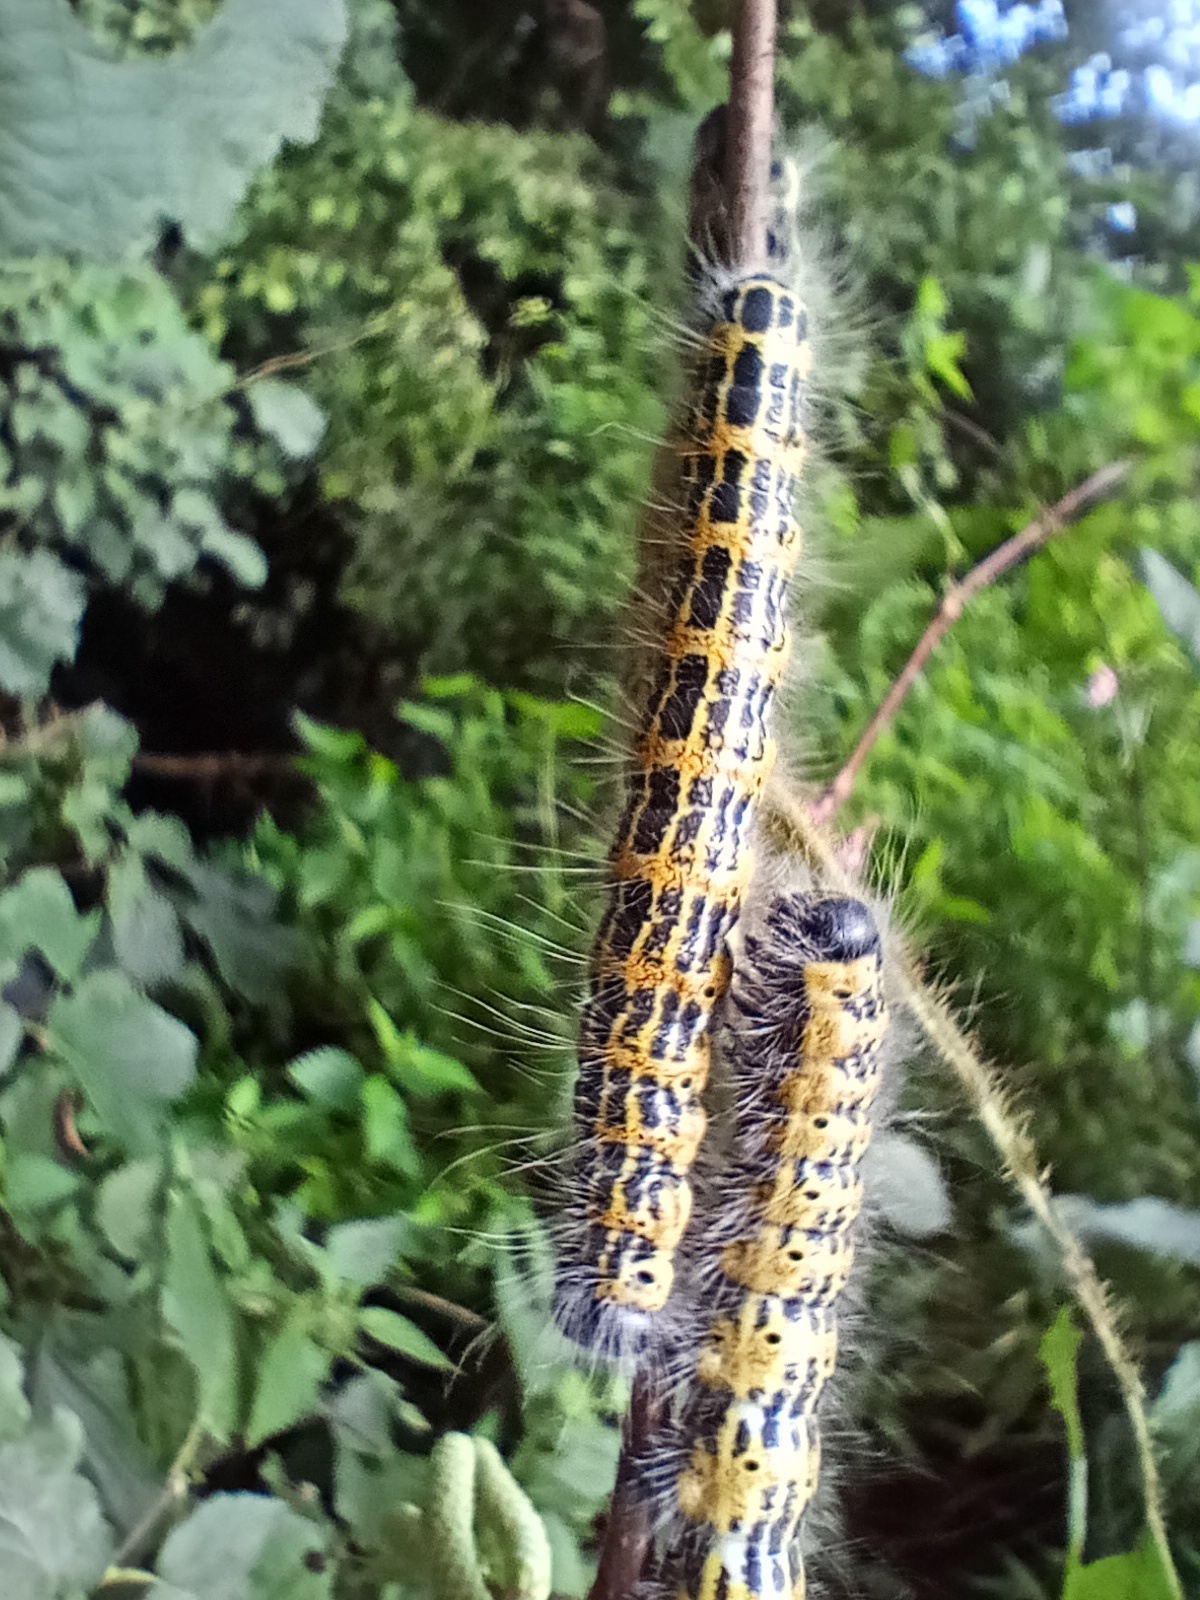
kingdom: Animalia
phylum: Arthropoda
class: Insecta
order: Lepidoptera
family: Notodontidae
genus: Phalera
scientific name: Phalera bucephala
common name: Buff-tip
